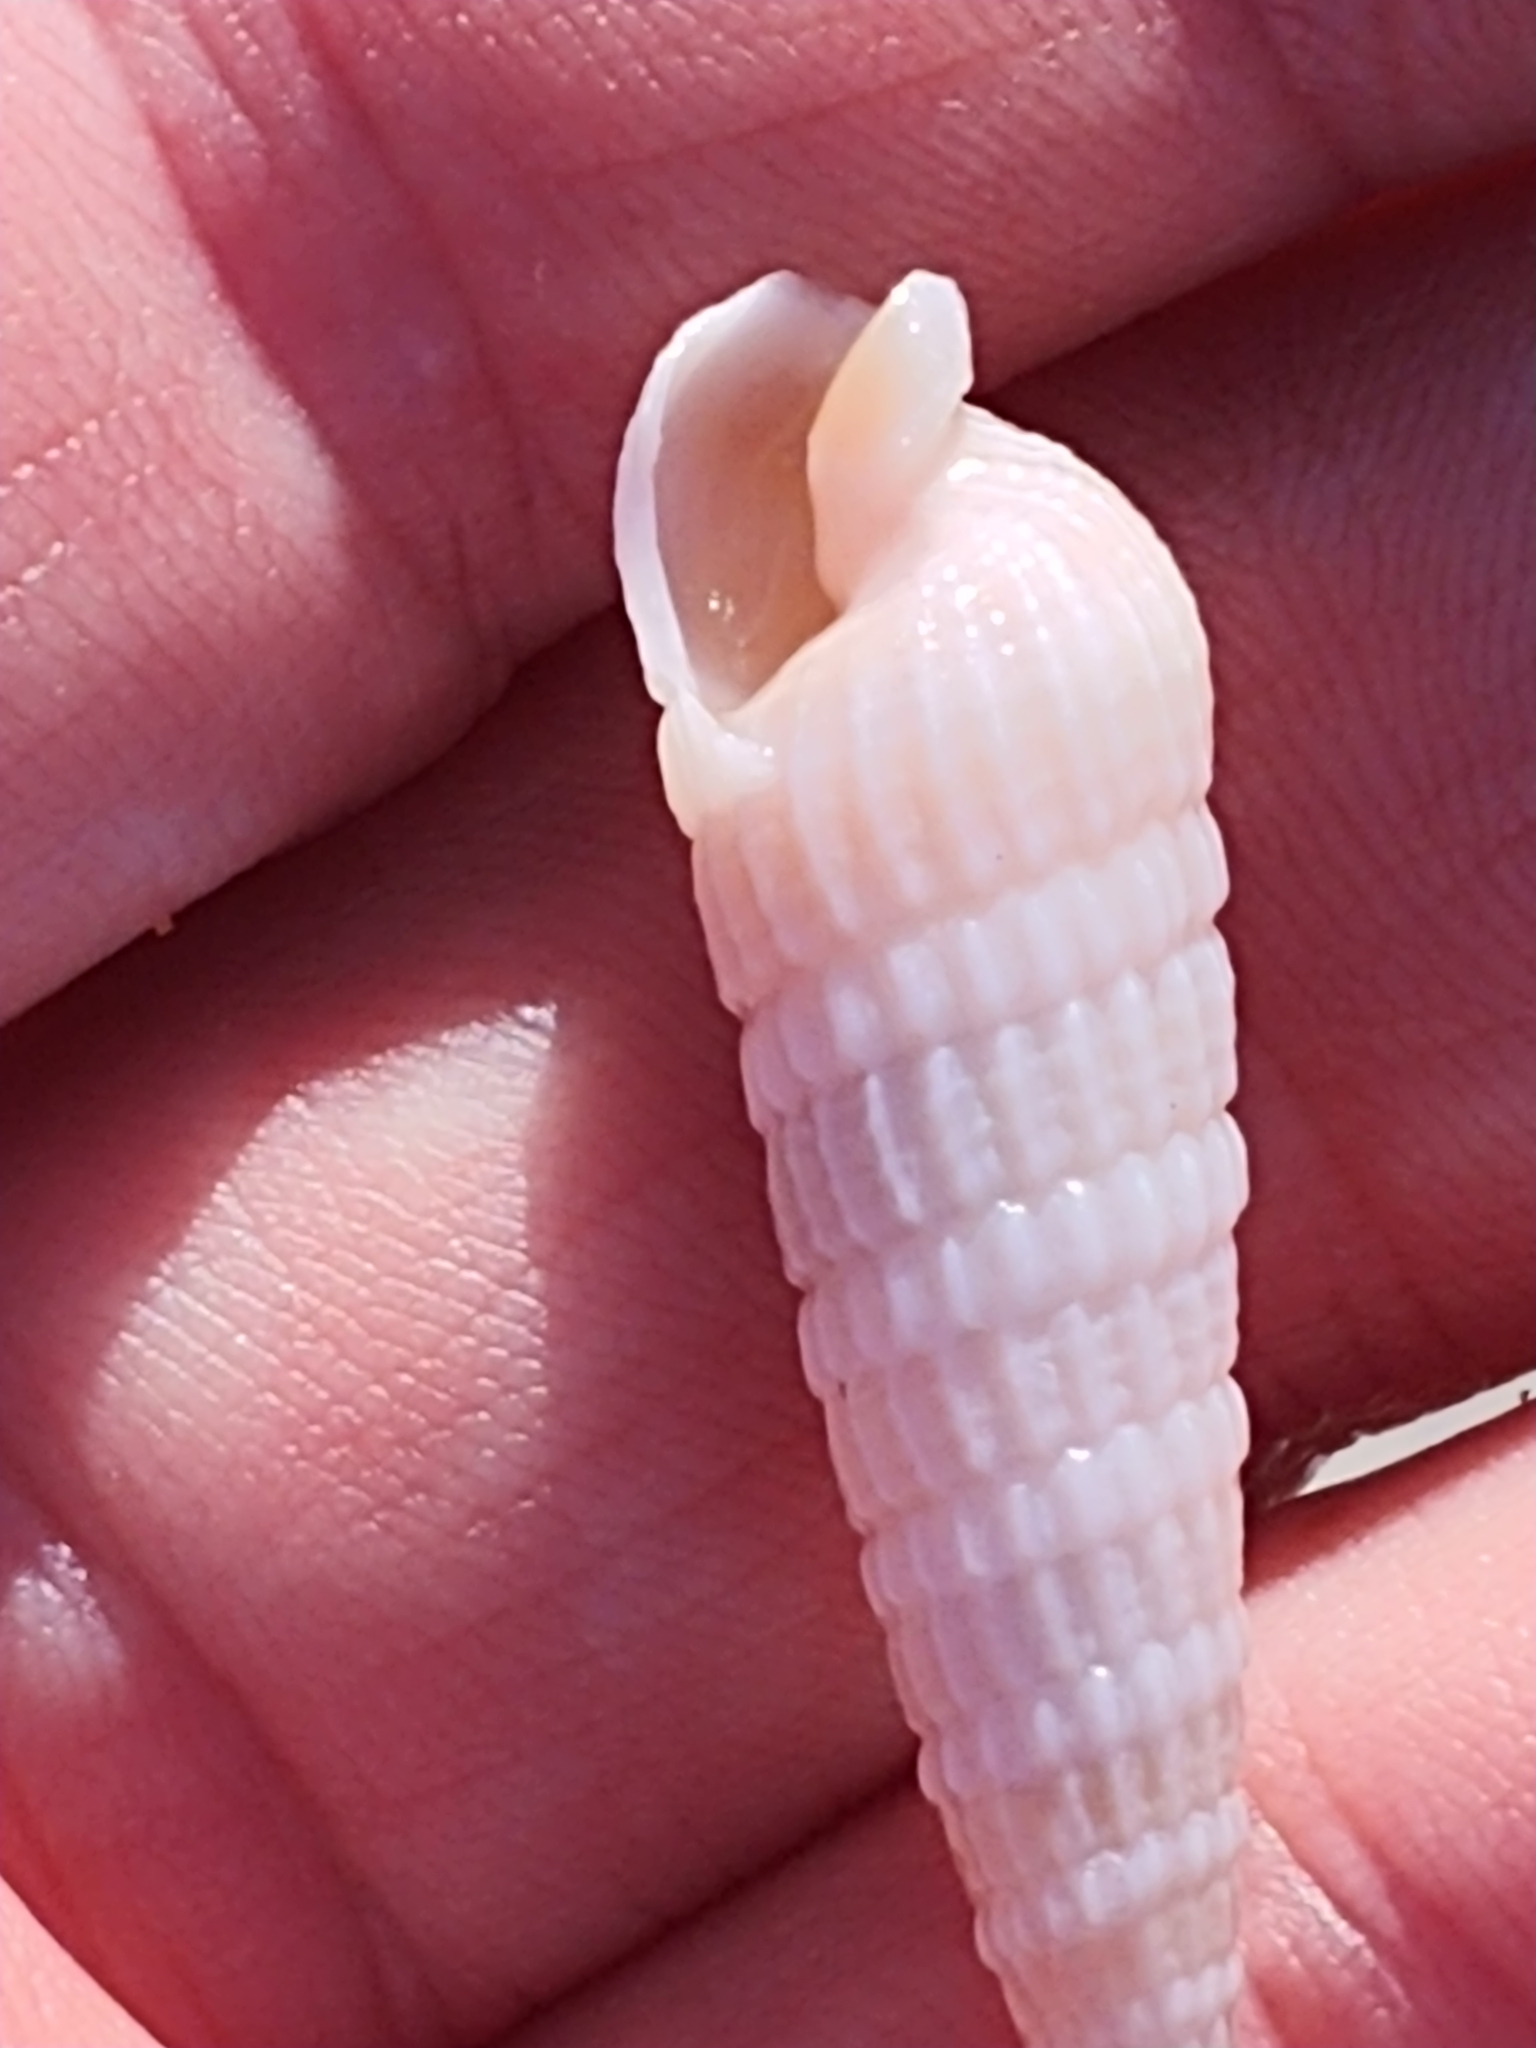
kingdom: Animalia
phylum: Mollusca
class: Gastropoda
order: Neogastropoda
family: Terebridae
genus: Neoterebra
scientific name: Neoterebra dislocata
